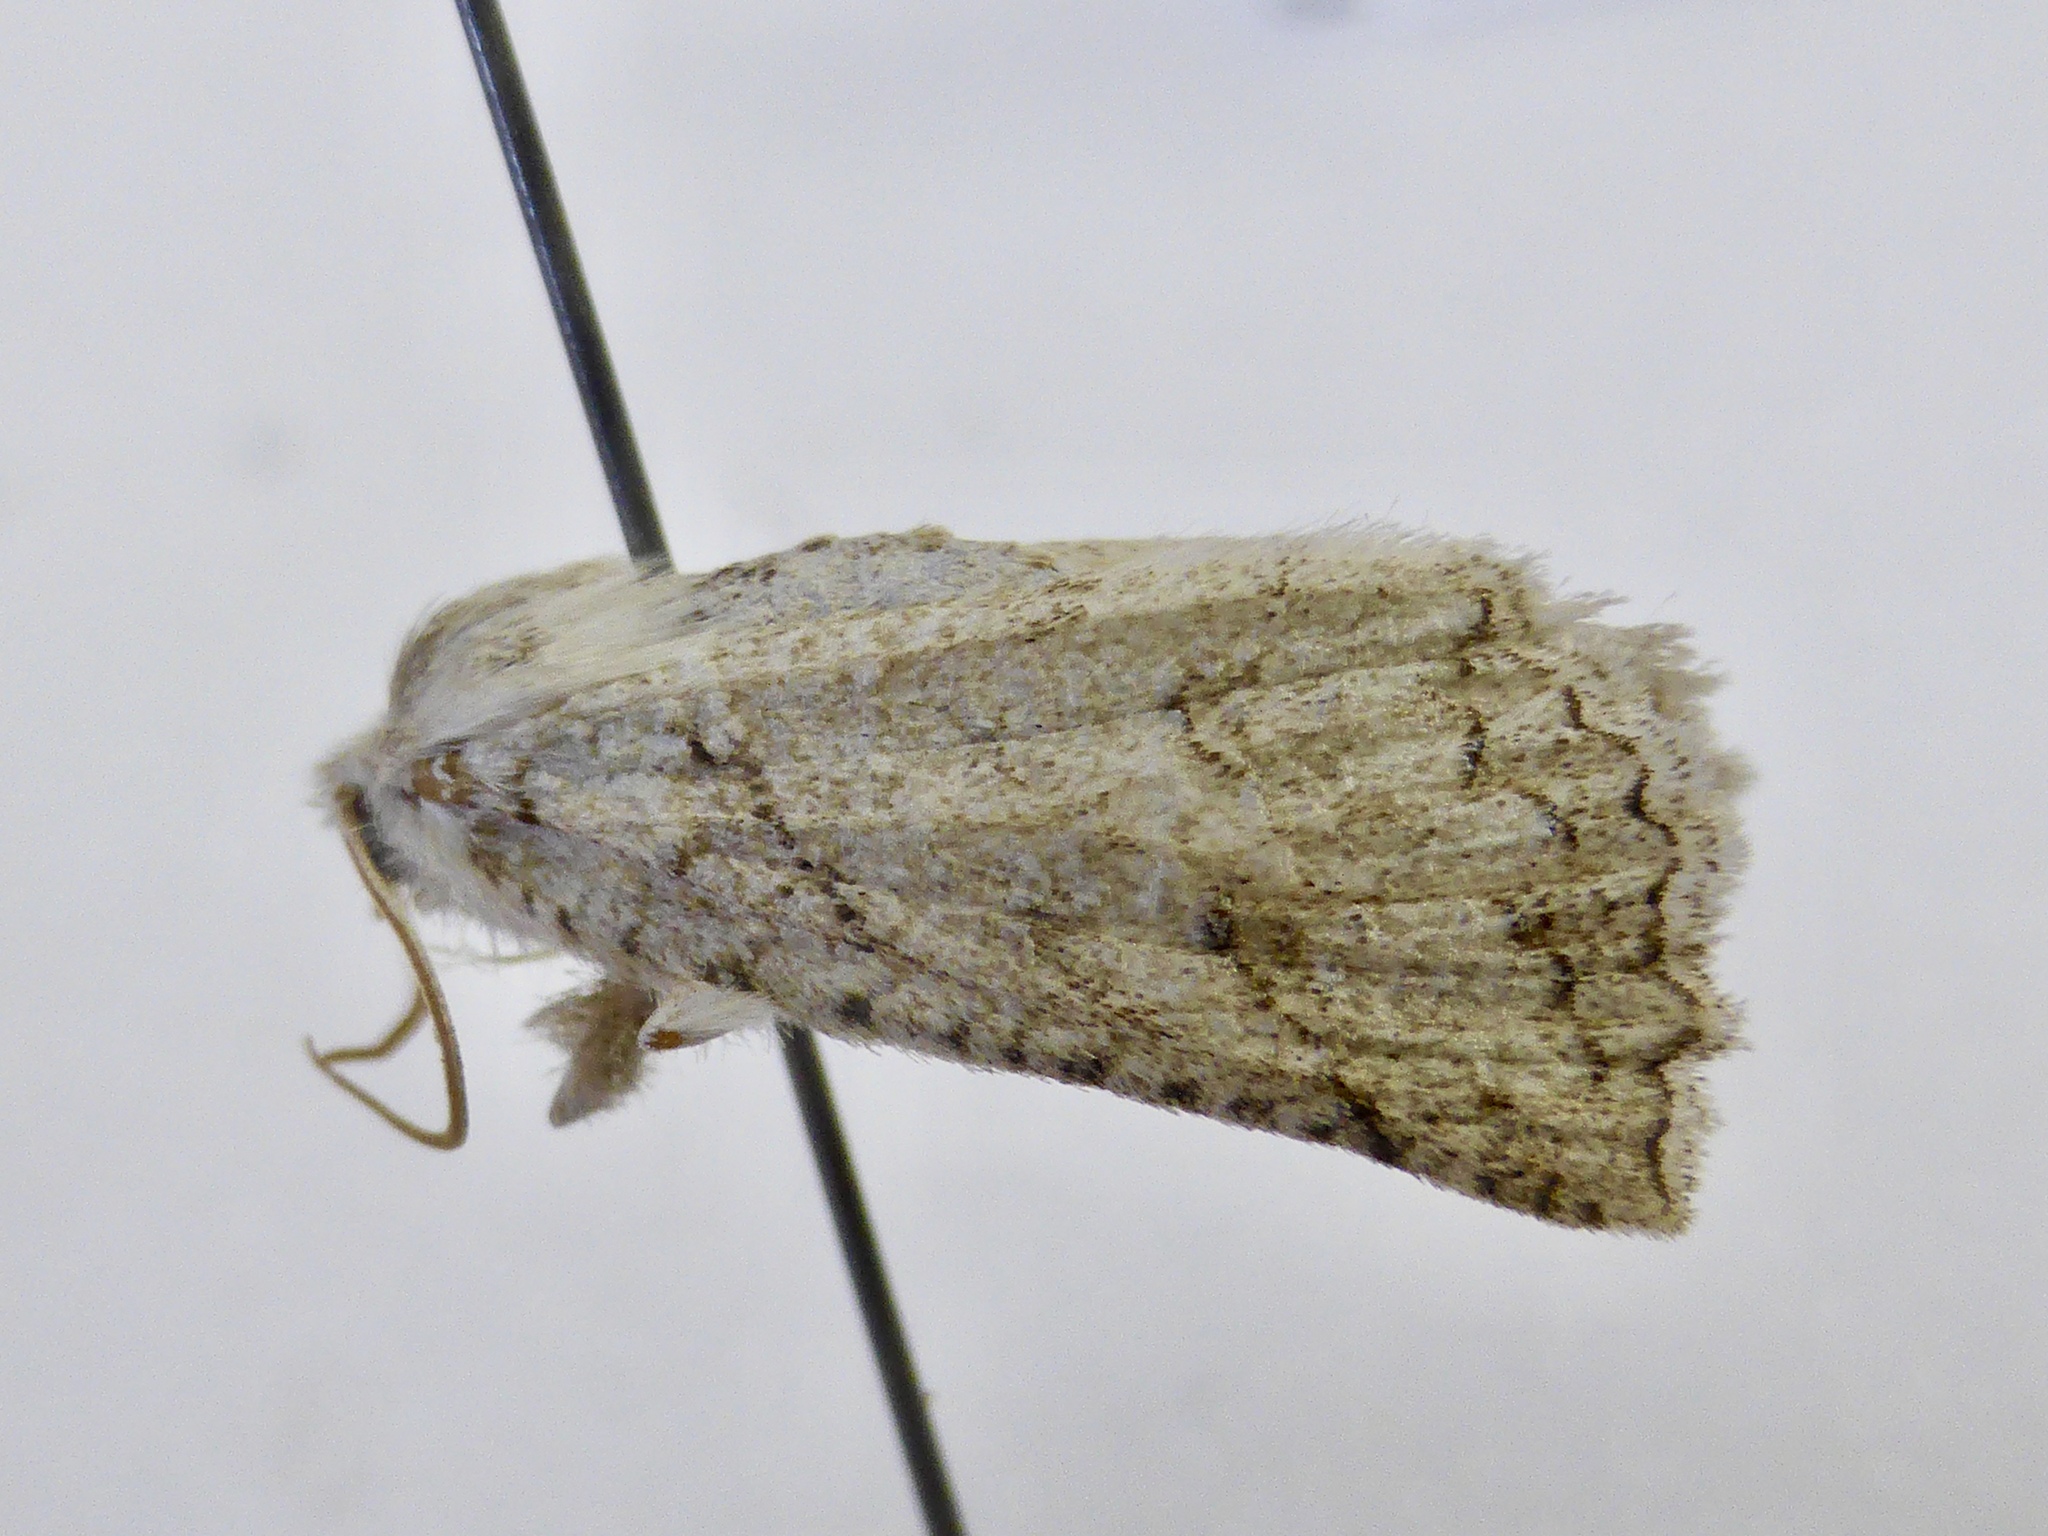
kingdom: Animalia
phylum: Arthropoda
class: Insecta
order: Lepidoptera
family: Geometridae
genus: Declana
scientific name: Declana floccosa
